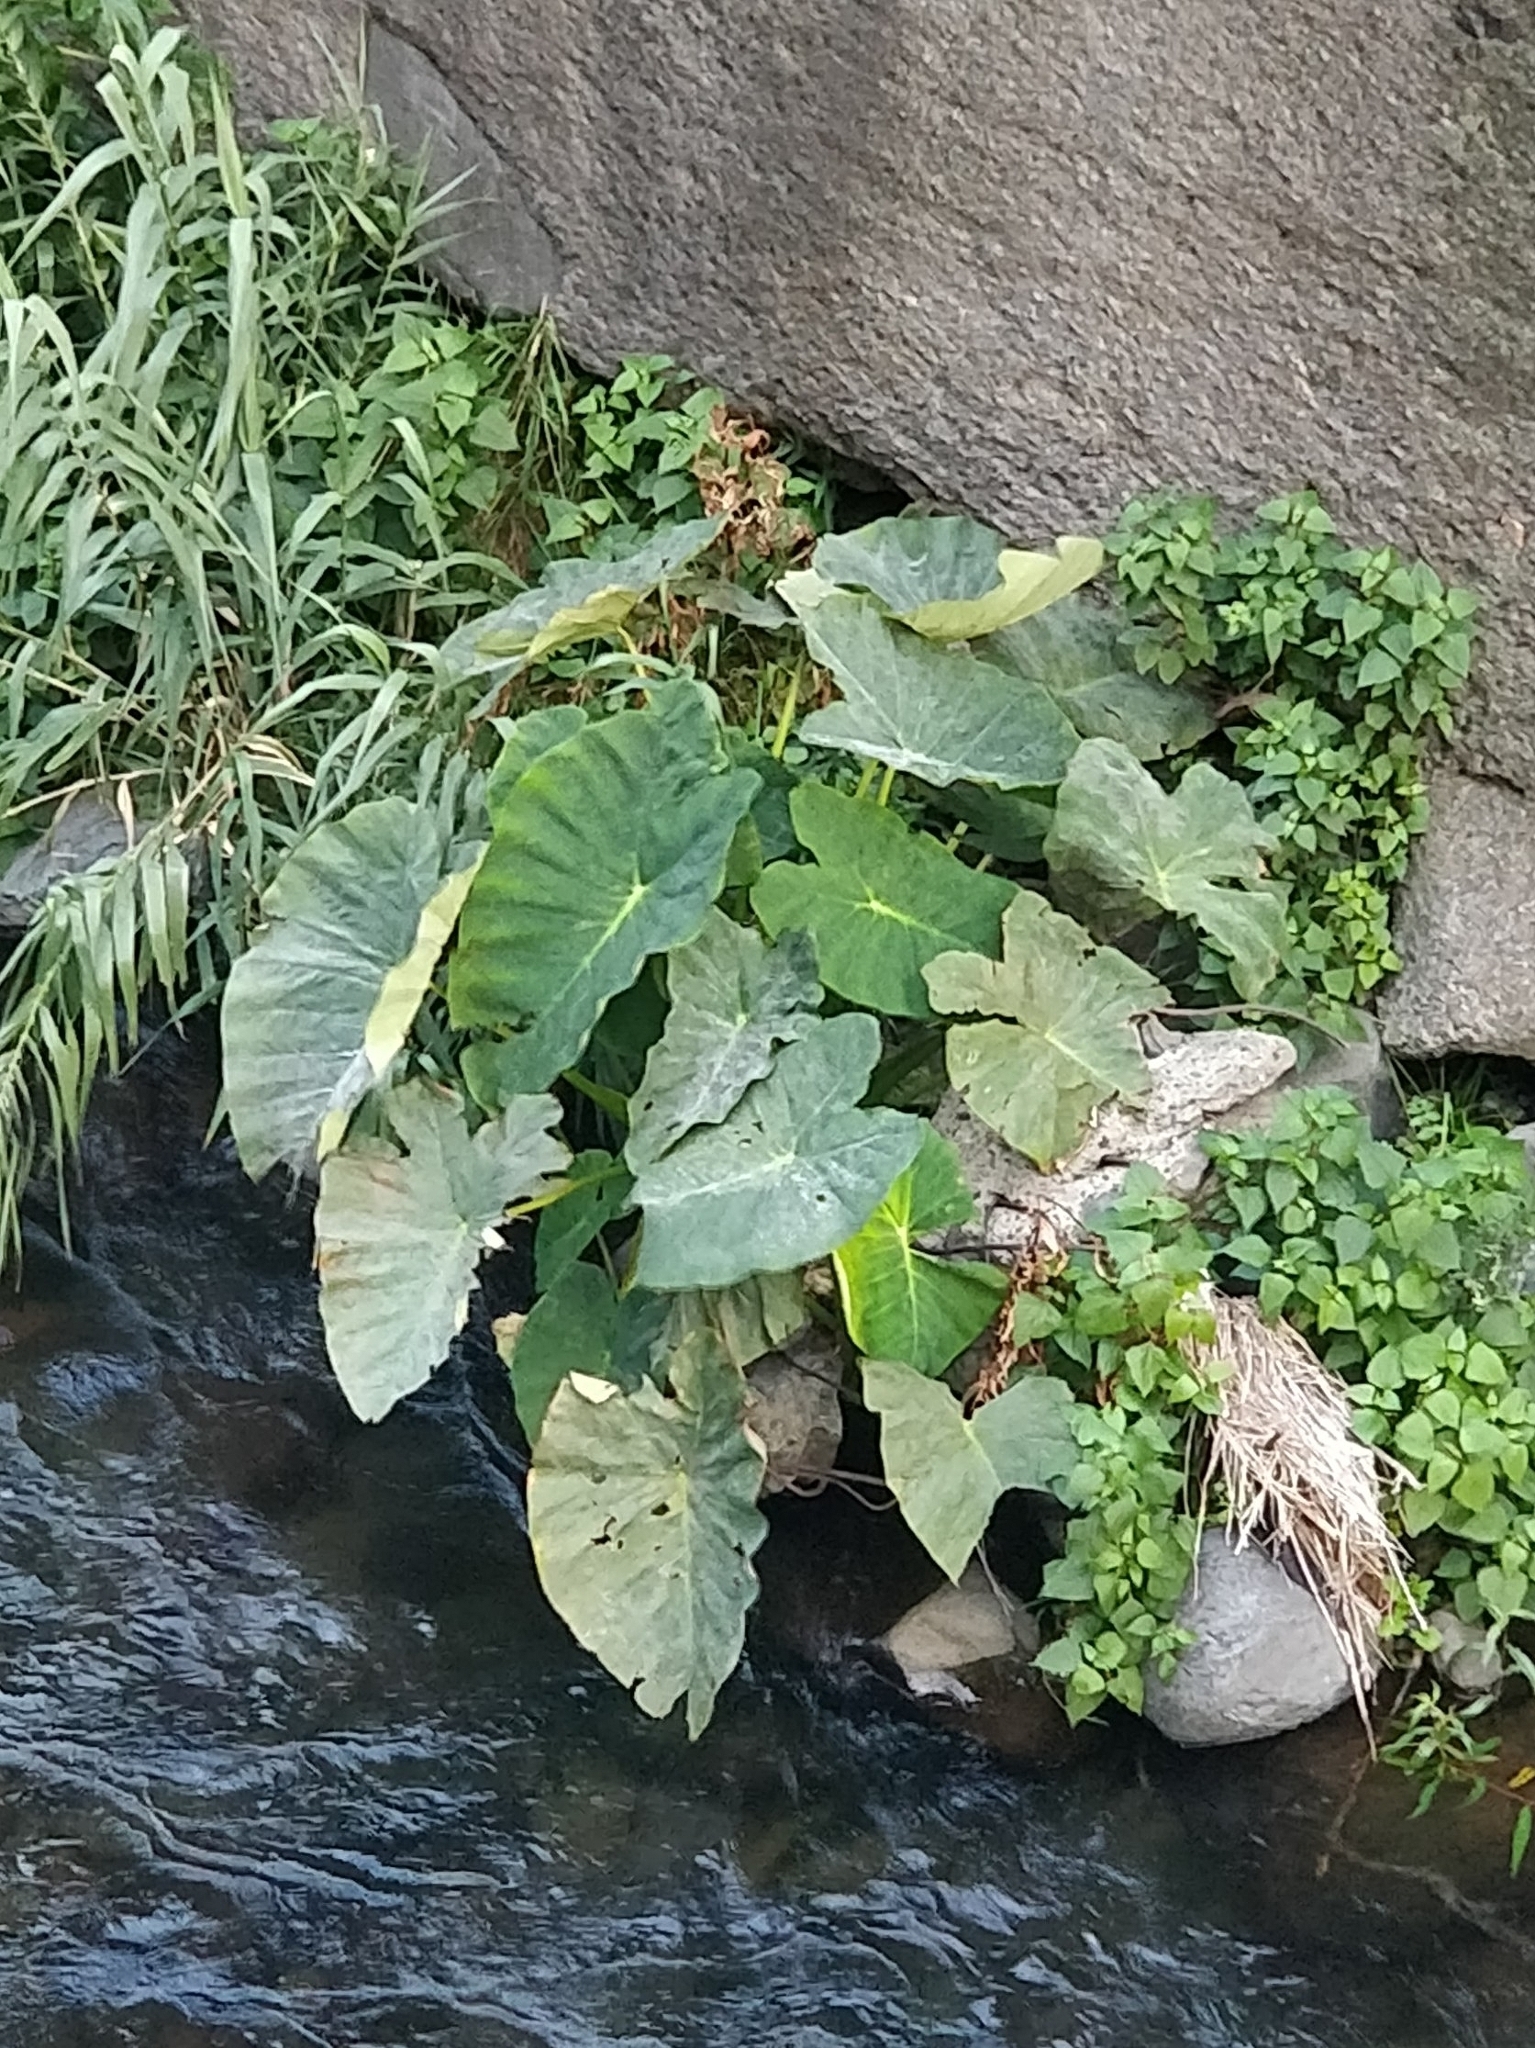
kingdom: Plantae
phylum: Tracheophyta
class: Liliopsida
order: Alismatales
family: Araceae
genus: Colocasia
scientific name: Colocasia esculenta
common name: Taro
